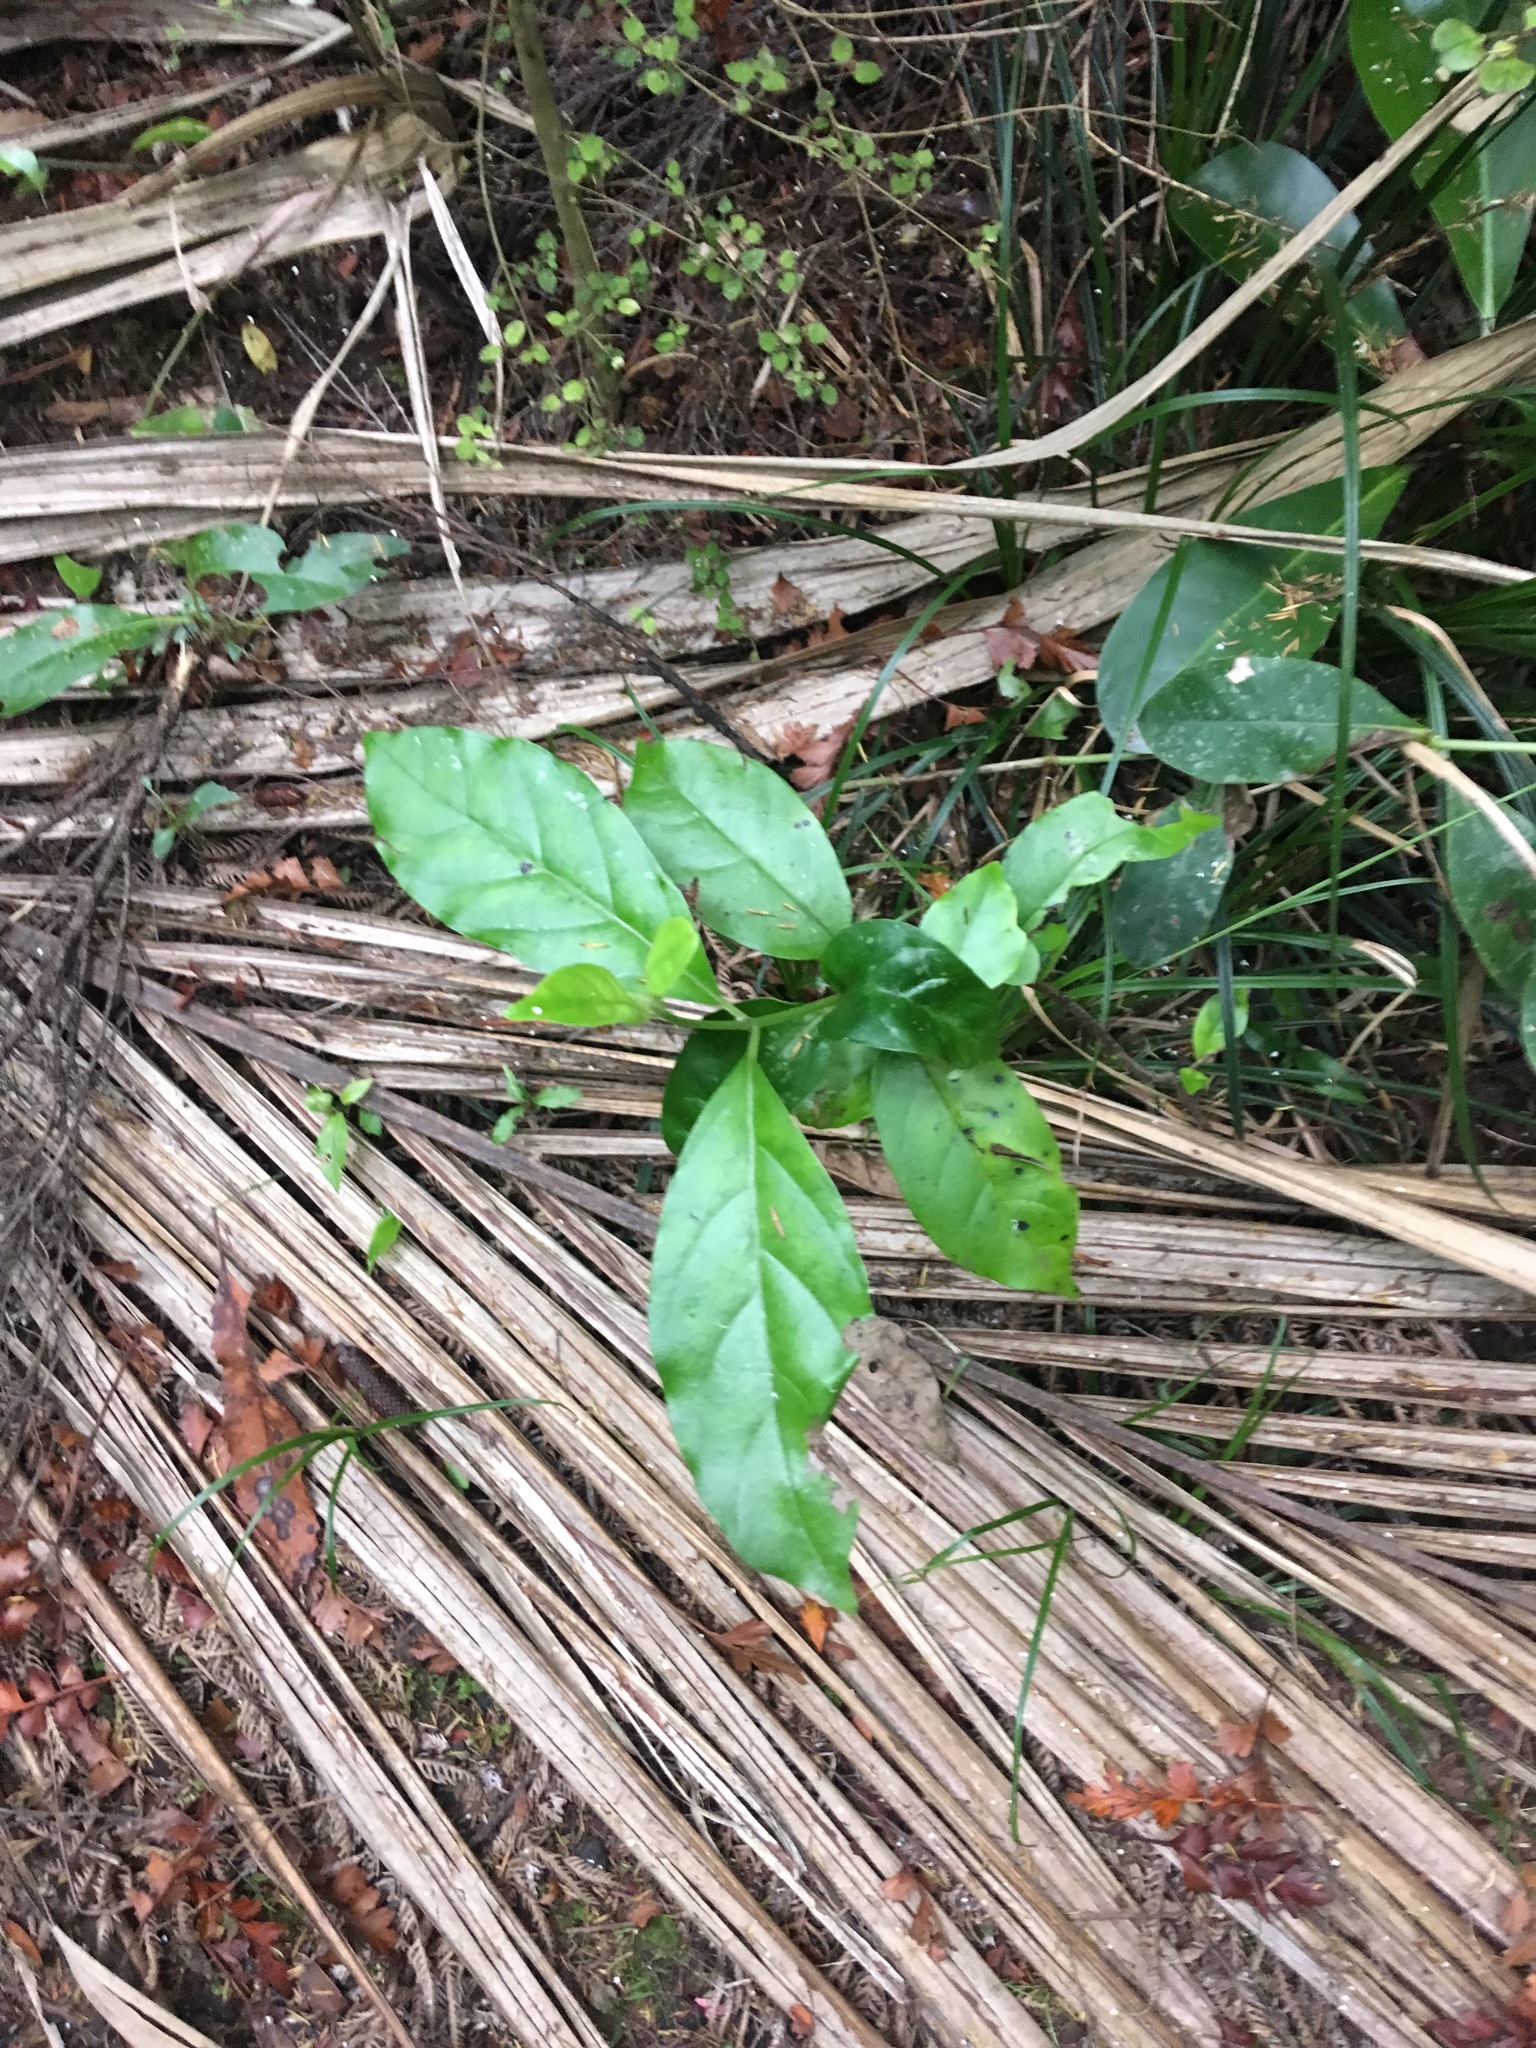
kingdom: Plantae
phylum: Tracheophyta
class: Magnoliopsida
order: Gentianales
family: Loganiaceae
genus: Geniostoma
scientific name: Geniostoma ligustrifolium
